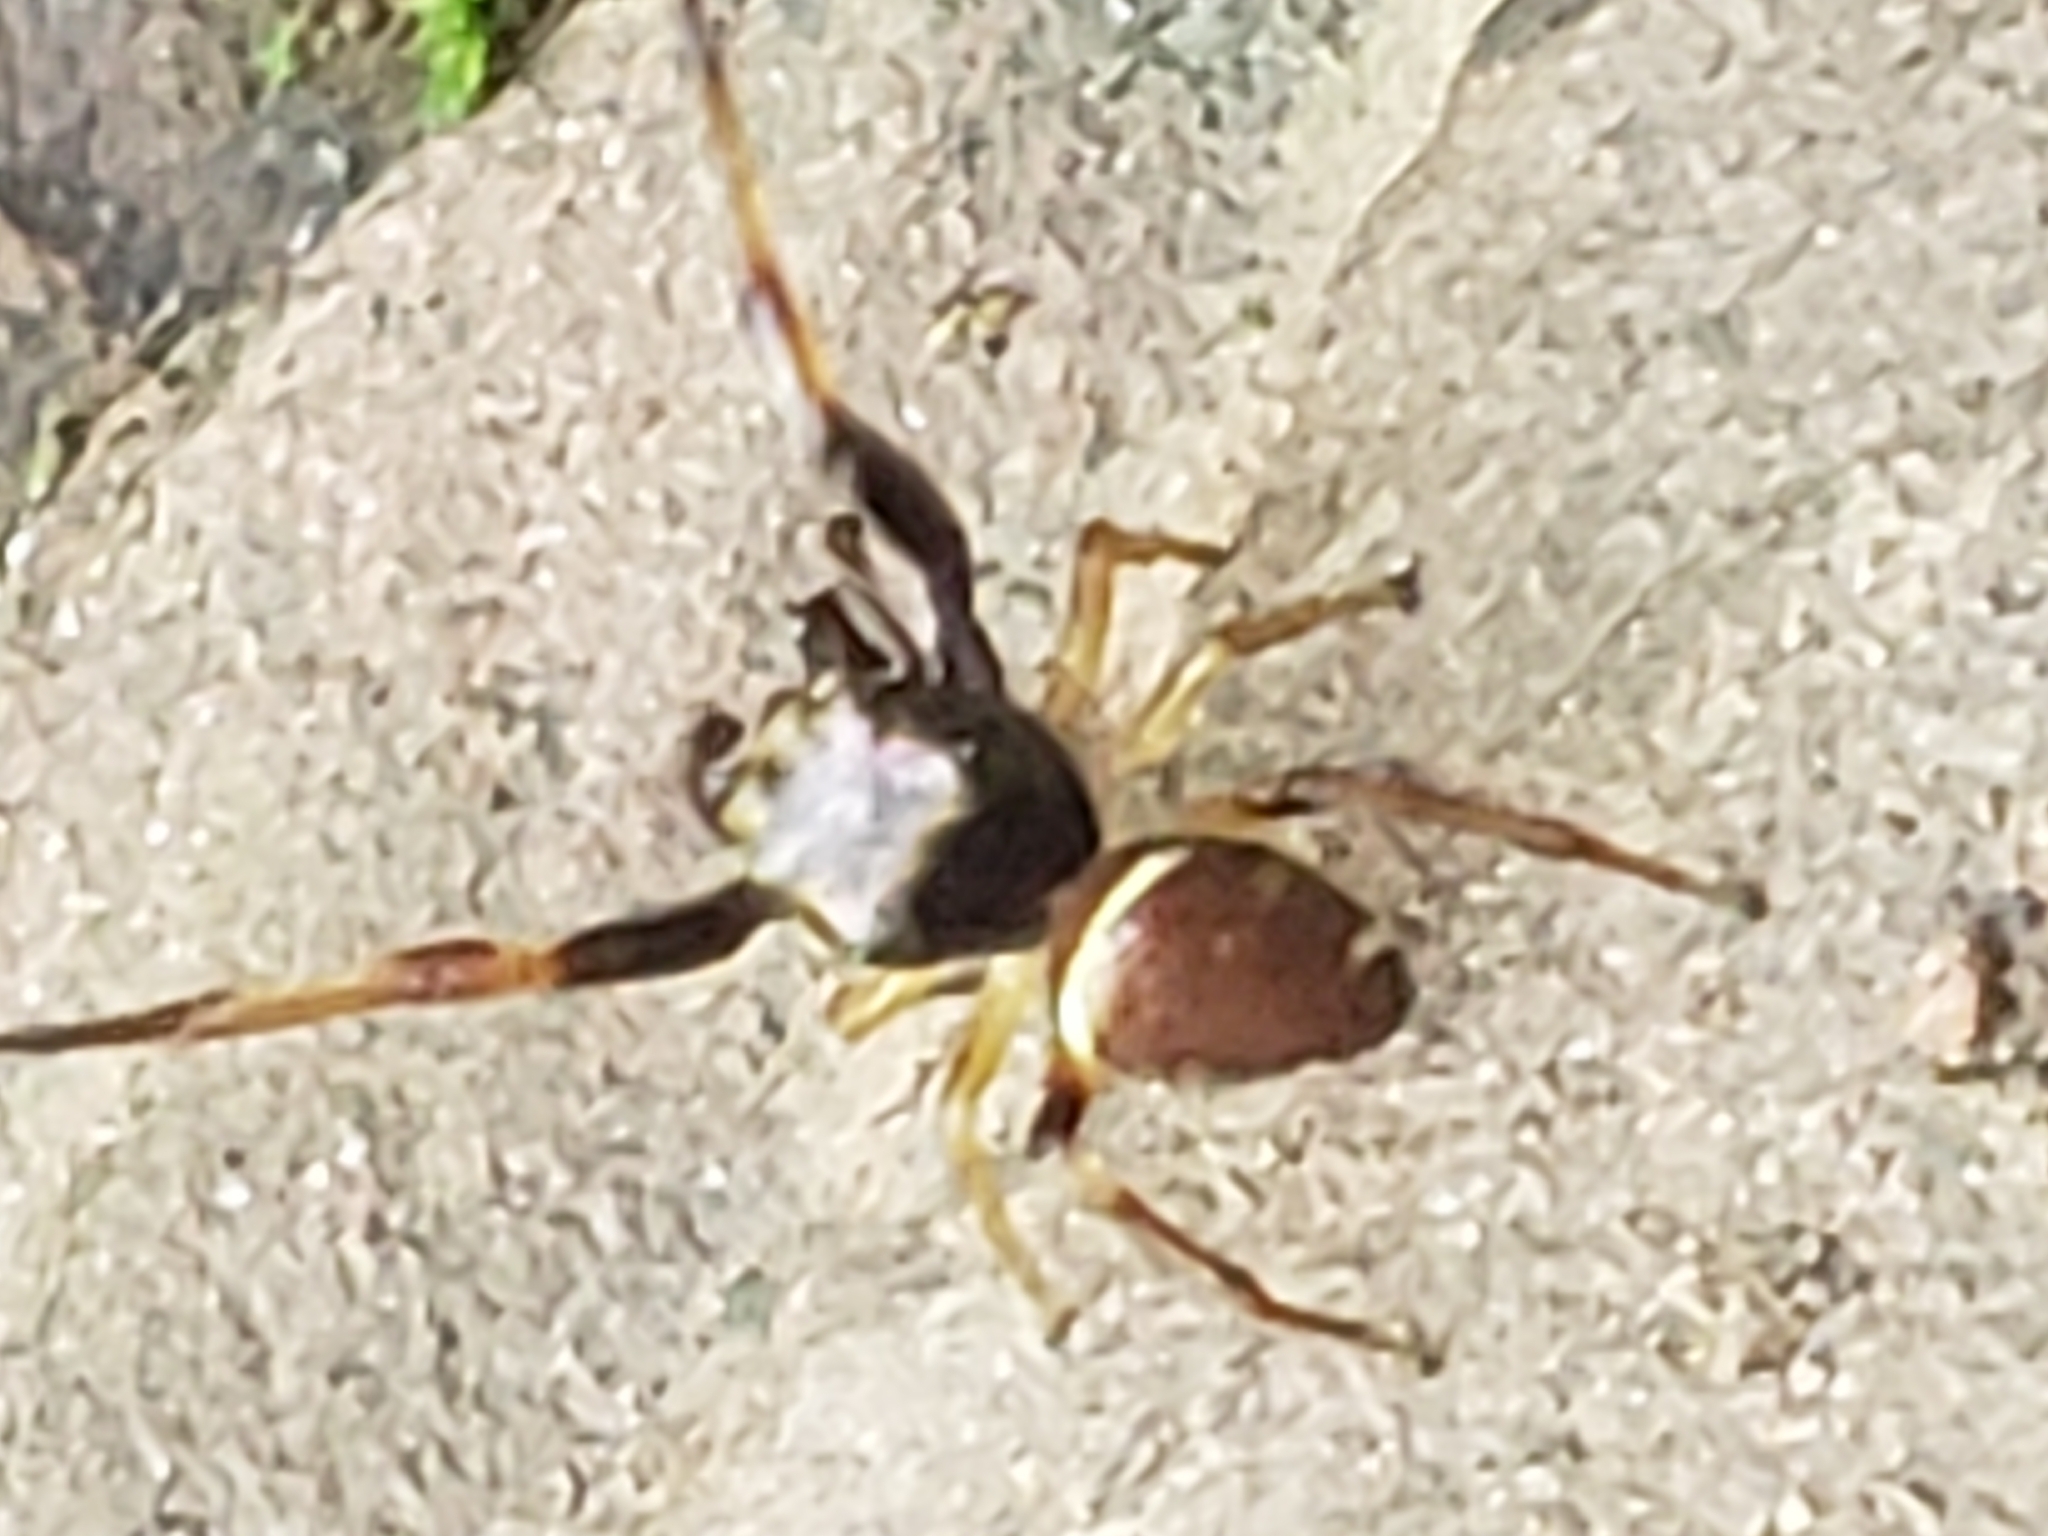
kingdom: Animalia
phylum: Arthropoda
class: Arachnida
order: Araneae
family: Salticidae
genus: Zygoballus
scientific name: Zygoballus rufipes
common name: Jumping spiders
